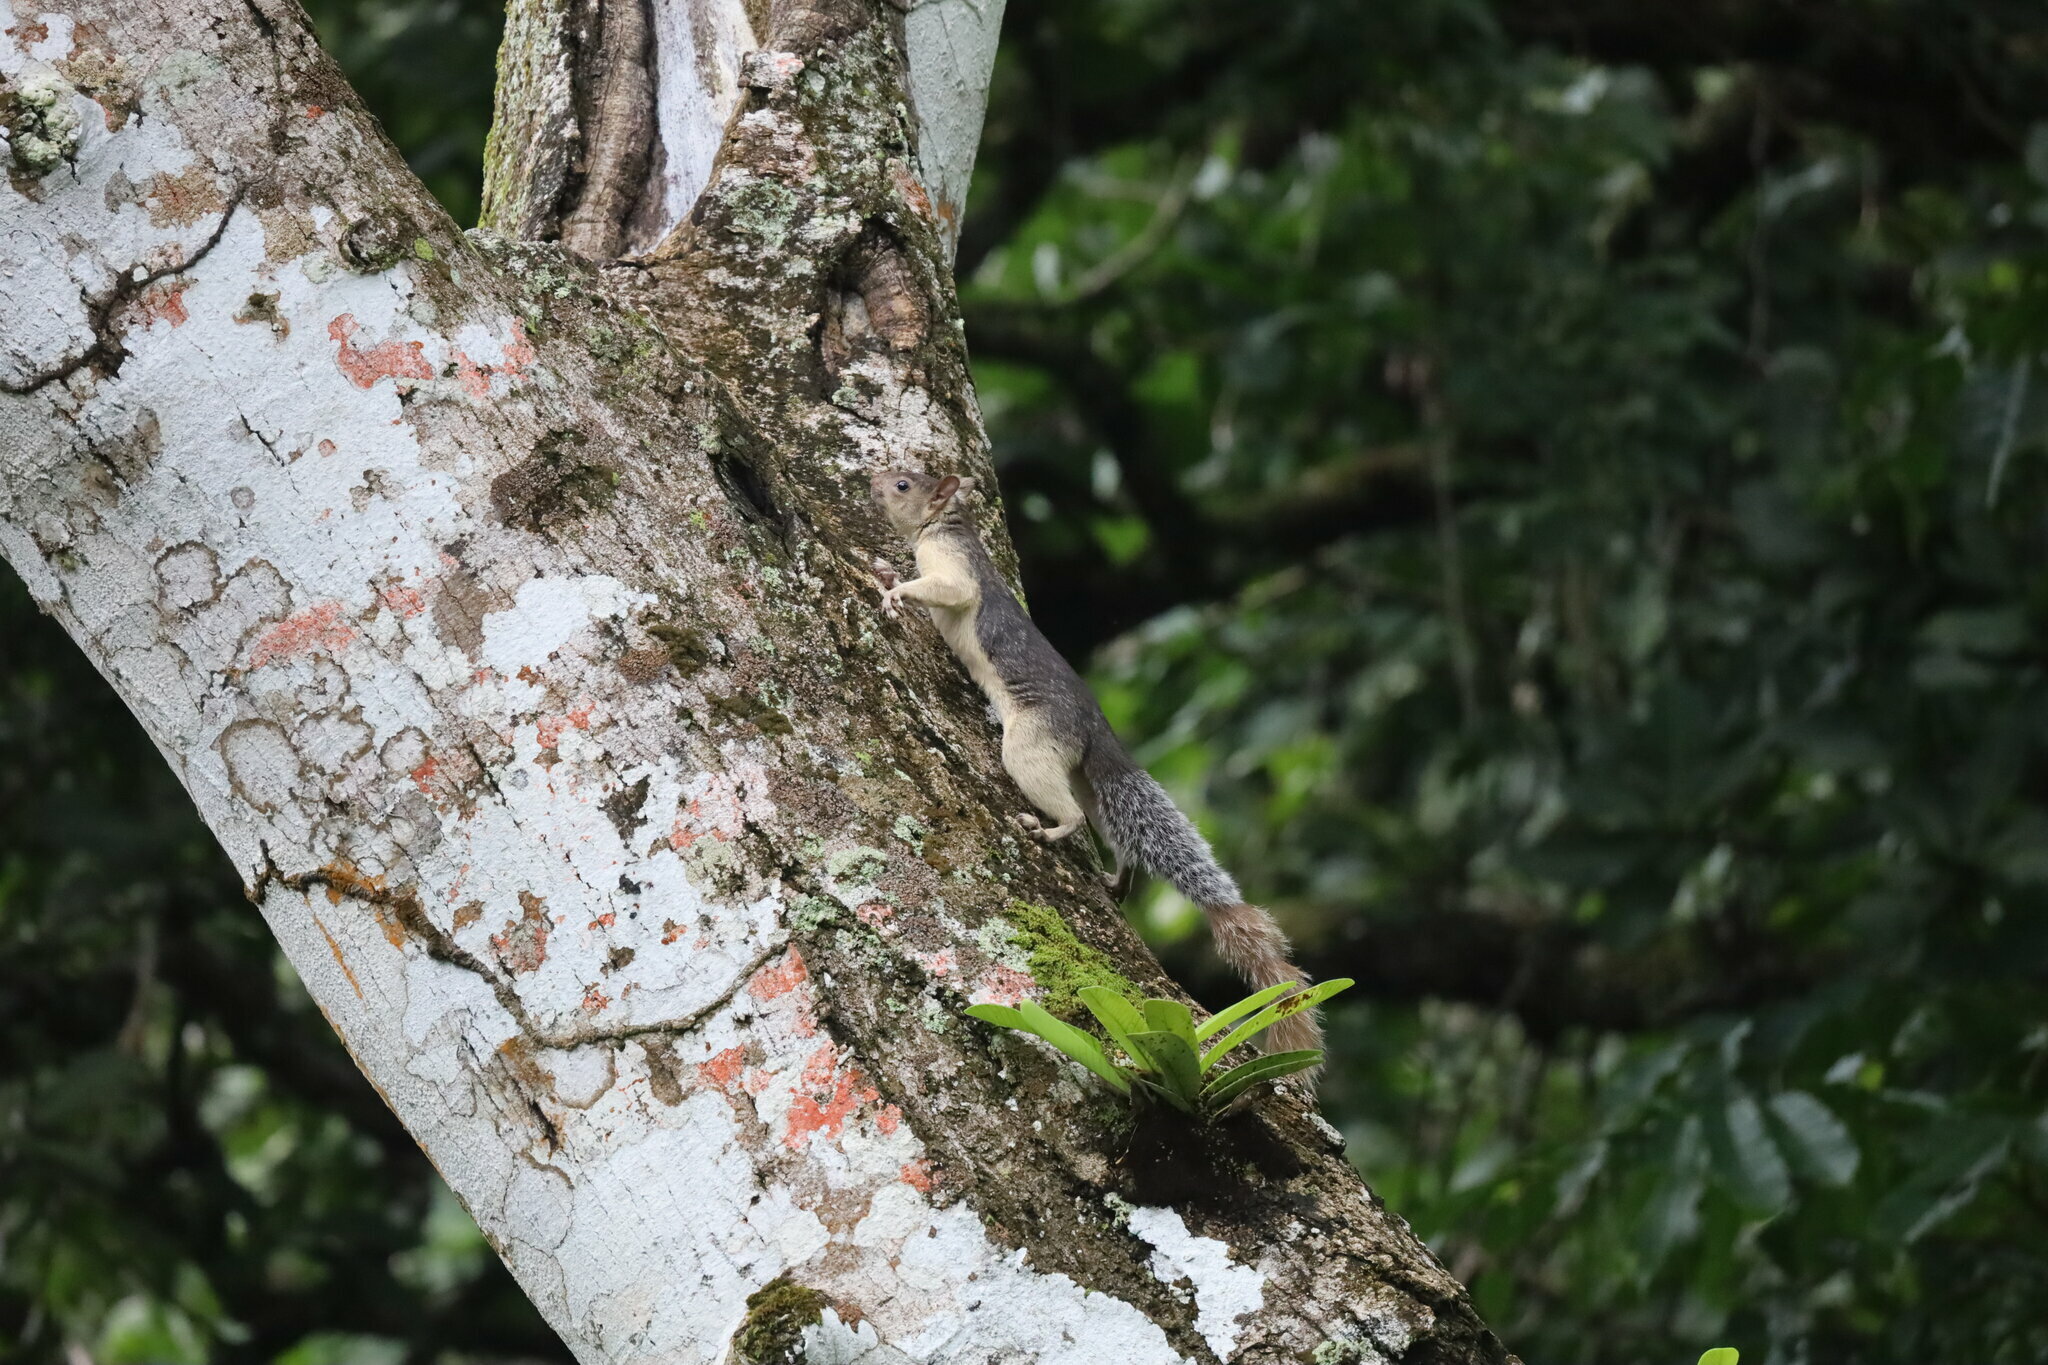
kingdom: Animalia
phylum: Chordata
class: Mammalia
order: Rodentia
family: Sciuridae
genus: Sciurus
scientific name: Sciurus variegatoides
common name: Variegated squirrel
